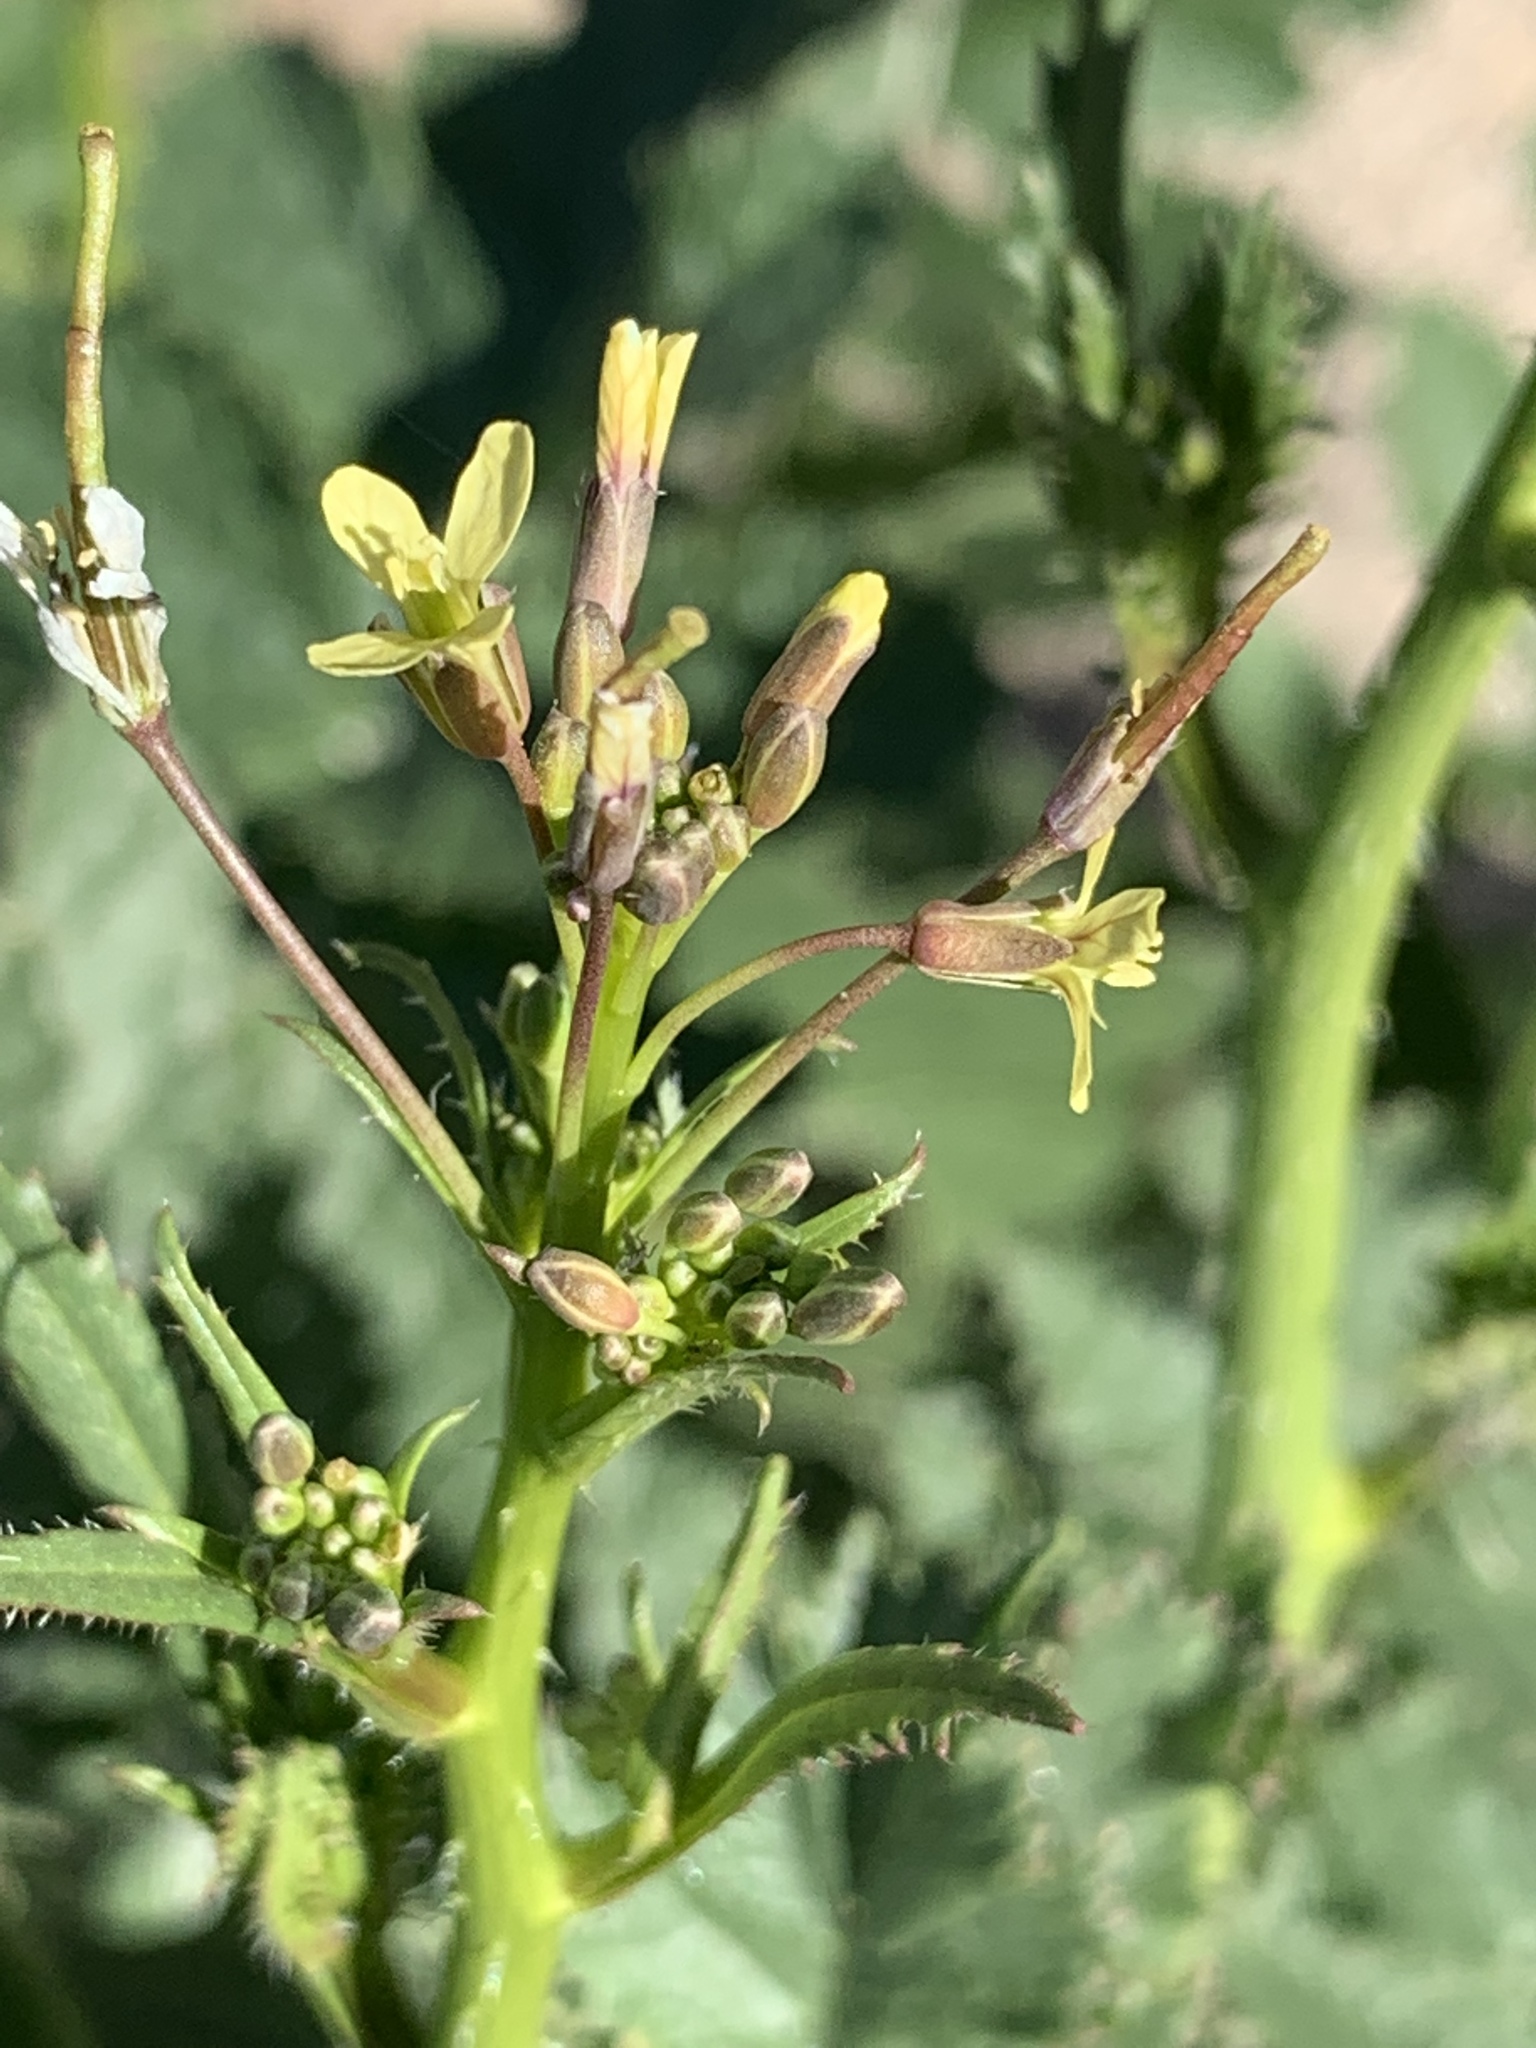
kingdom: Plantae
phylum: Tracheophyta
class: Magnoliopsida
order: Brassicales
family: Brassicaceae
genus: Brassica
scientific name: Brassica tournefortii
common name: Pale cabbage
